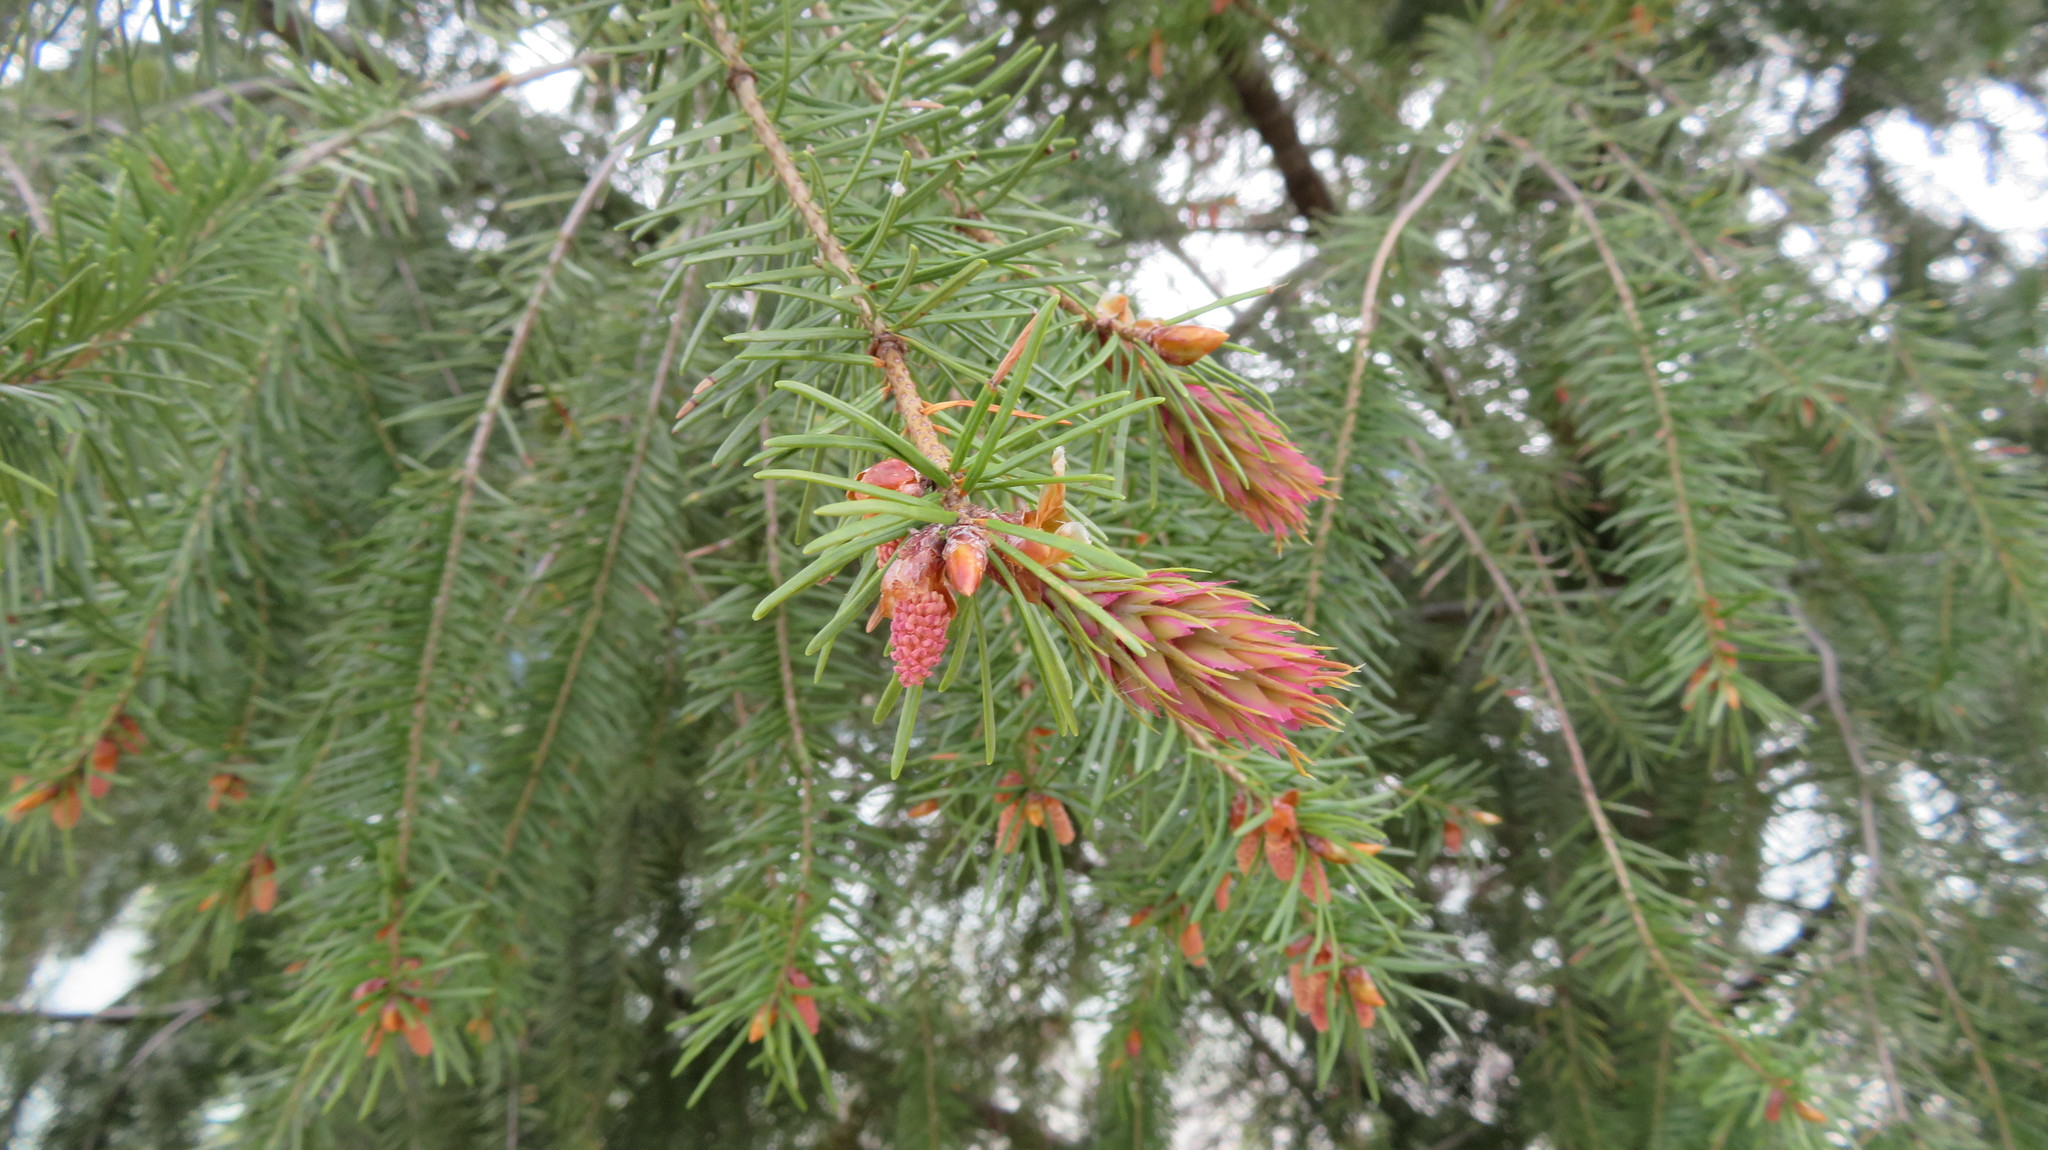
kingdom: Plantae
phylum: Tracheophyta
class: Pinopsida
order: Pinales
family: Pinaceae
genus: Pseudotsuga
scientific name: Pseudotsuga menziesii
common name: Douglas fir
